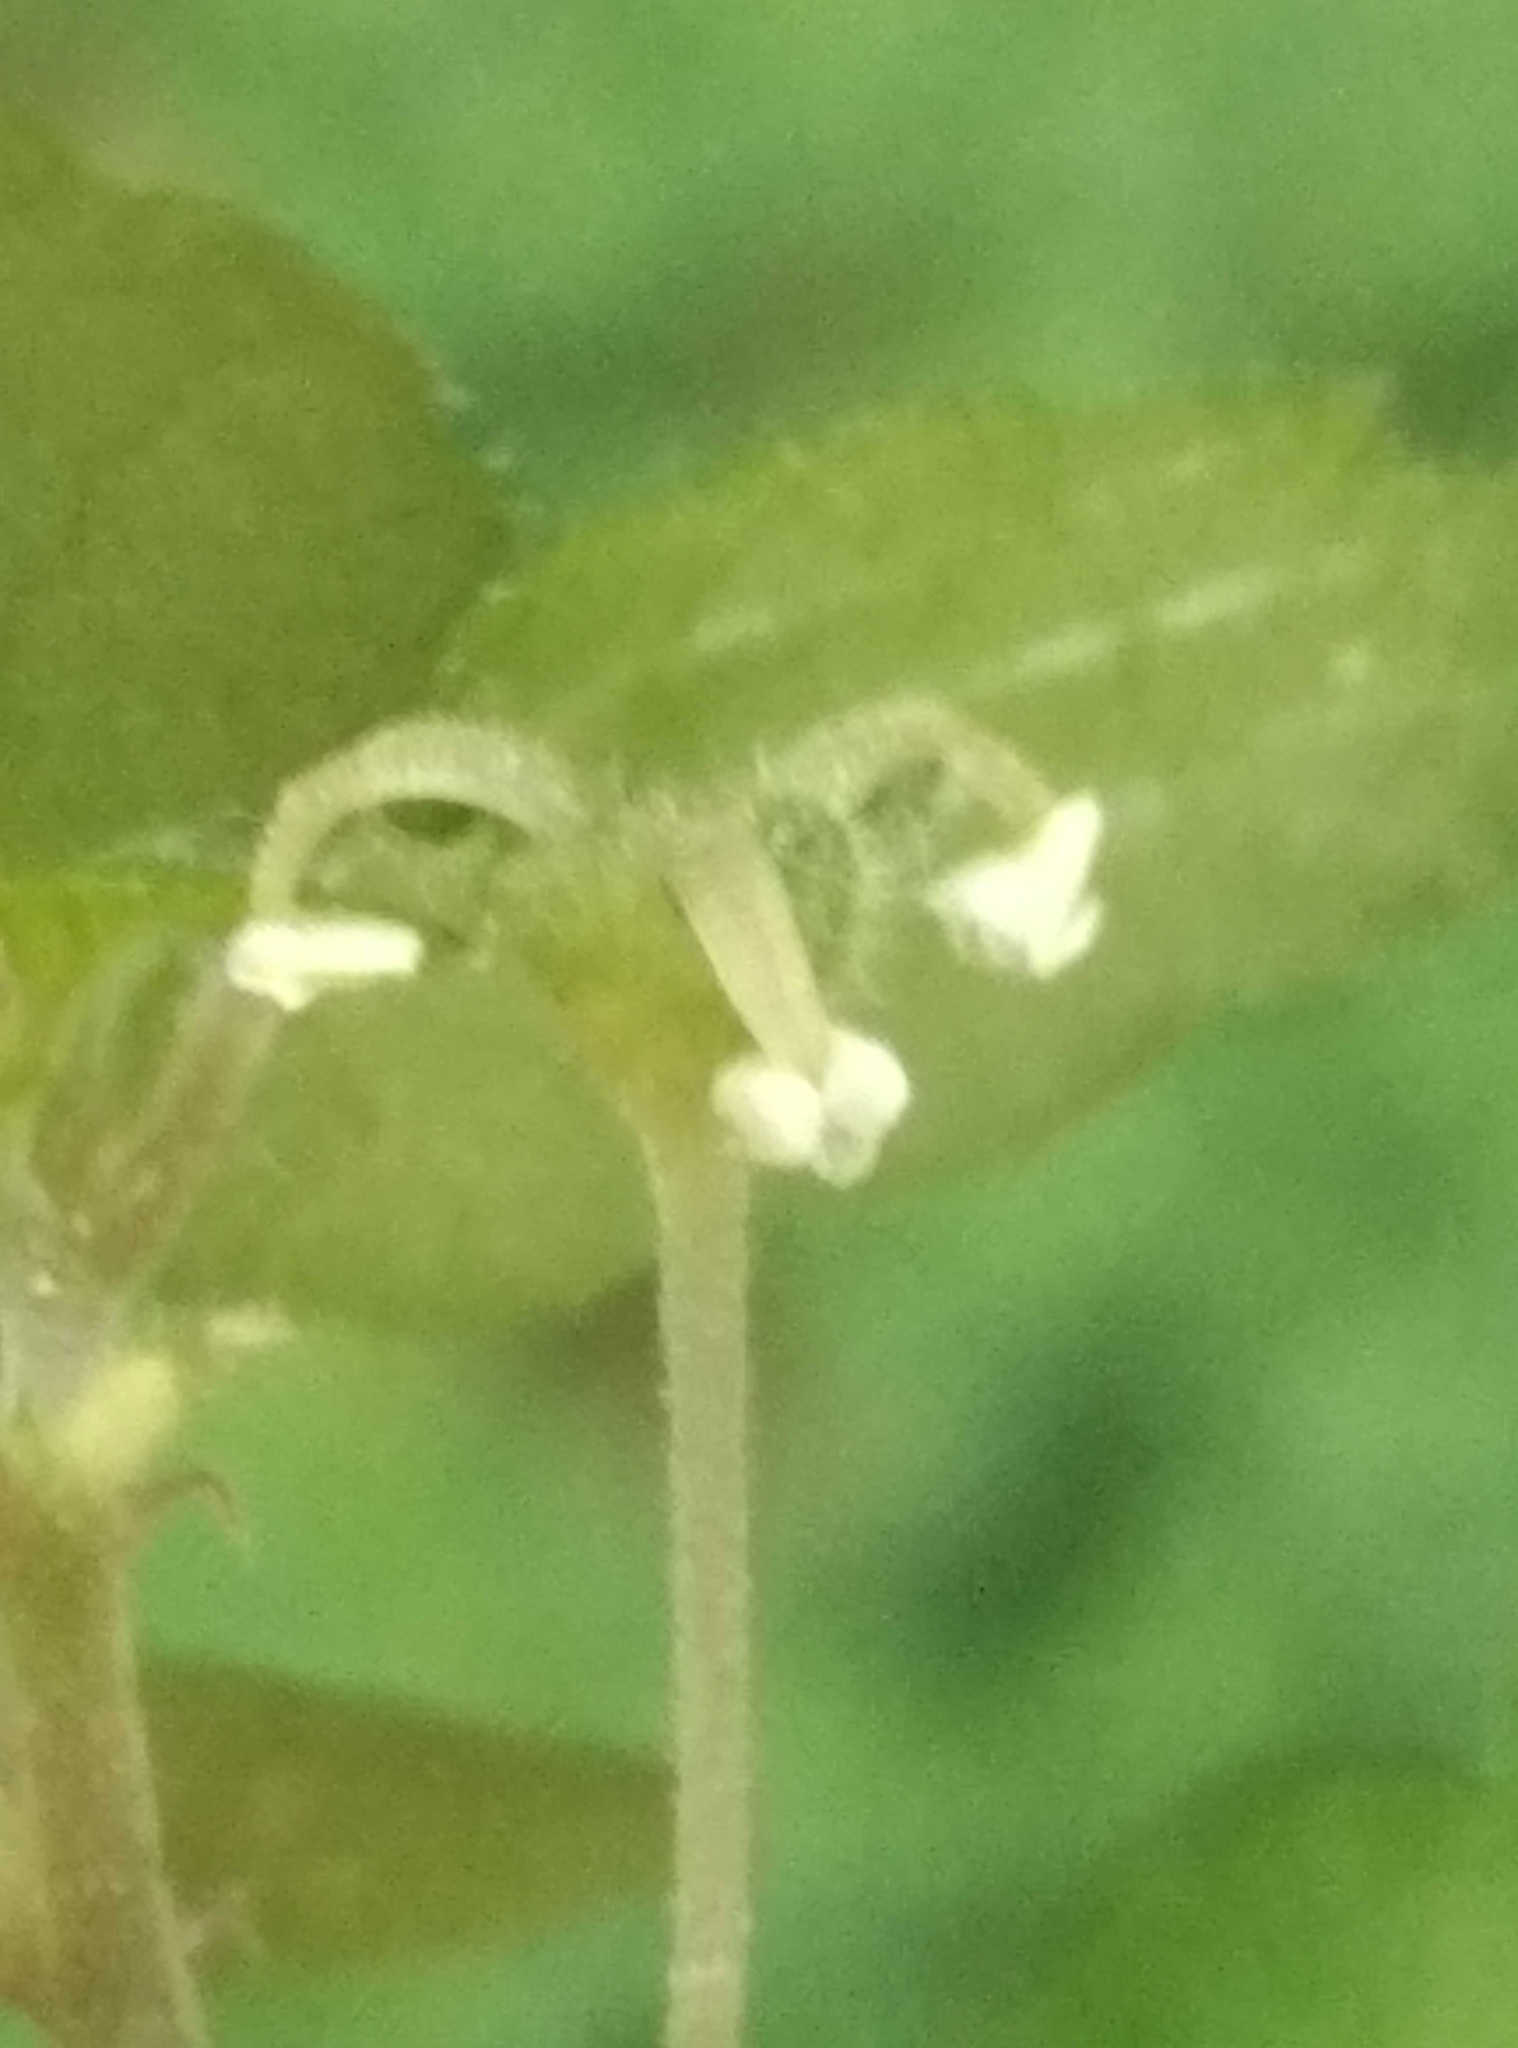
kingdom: Plantae
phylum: Tracheophyta
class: Magnoliopsida
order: Rosales
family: Urticaceae
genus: Australina
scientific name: Australina pusilla
